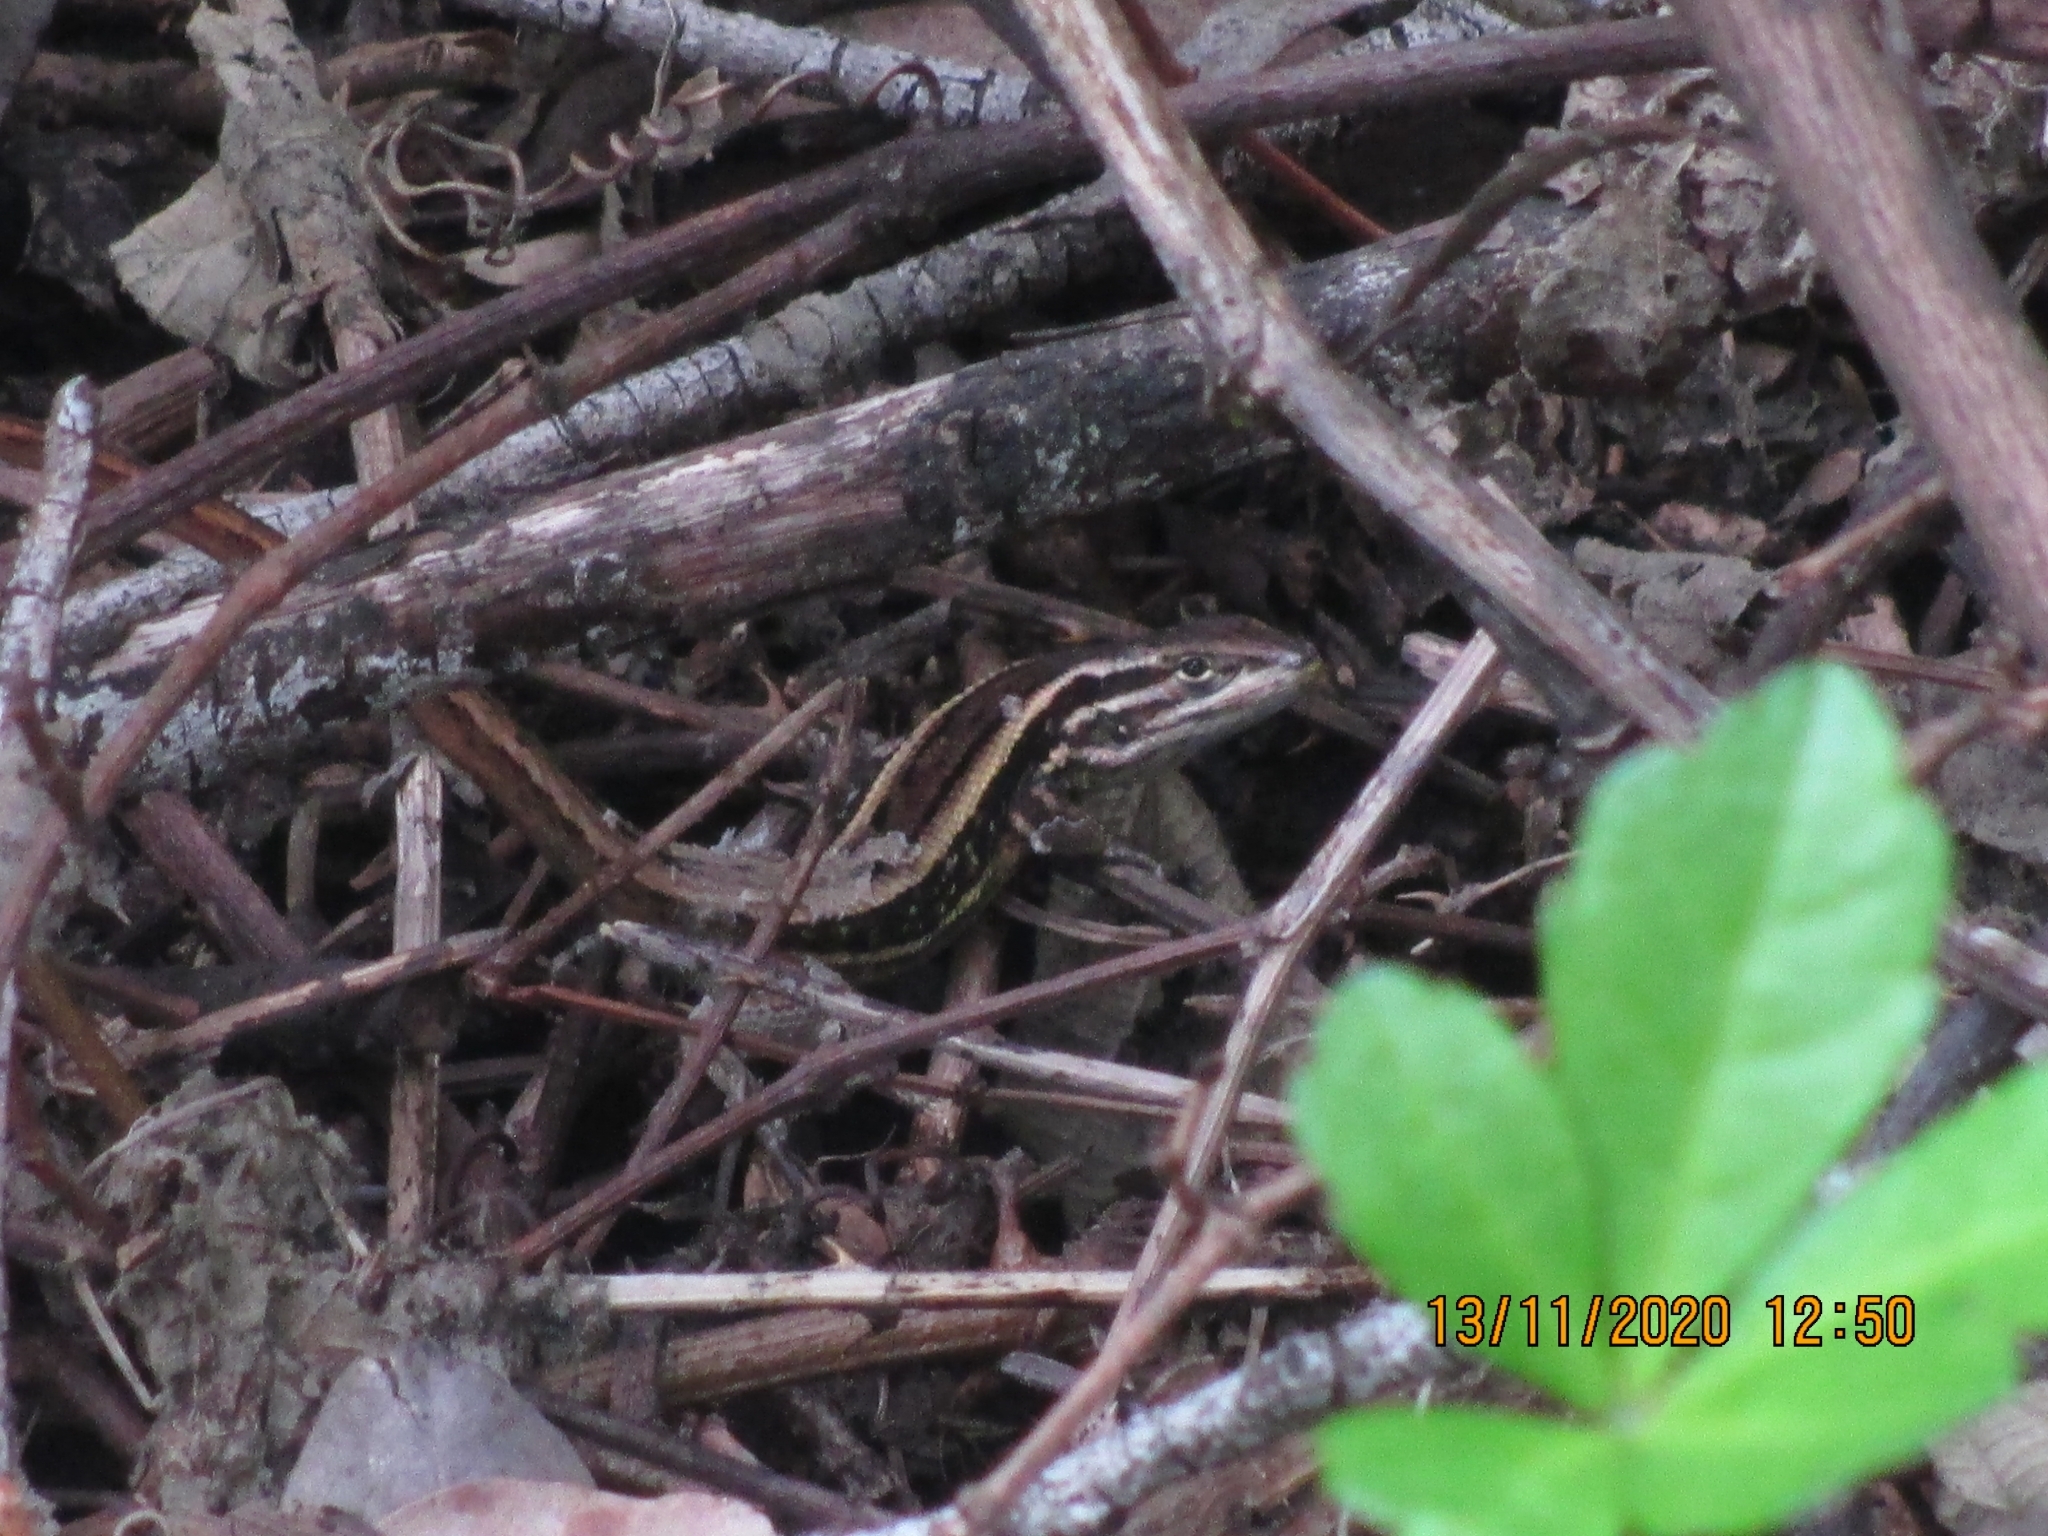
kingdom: Animalia
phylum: Chordata
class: Squamata
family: Liolaemidae
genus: Liolaemus
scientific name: Liolaemus cyanogaster
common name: Cyan tree iguana
